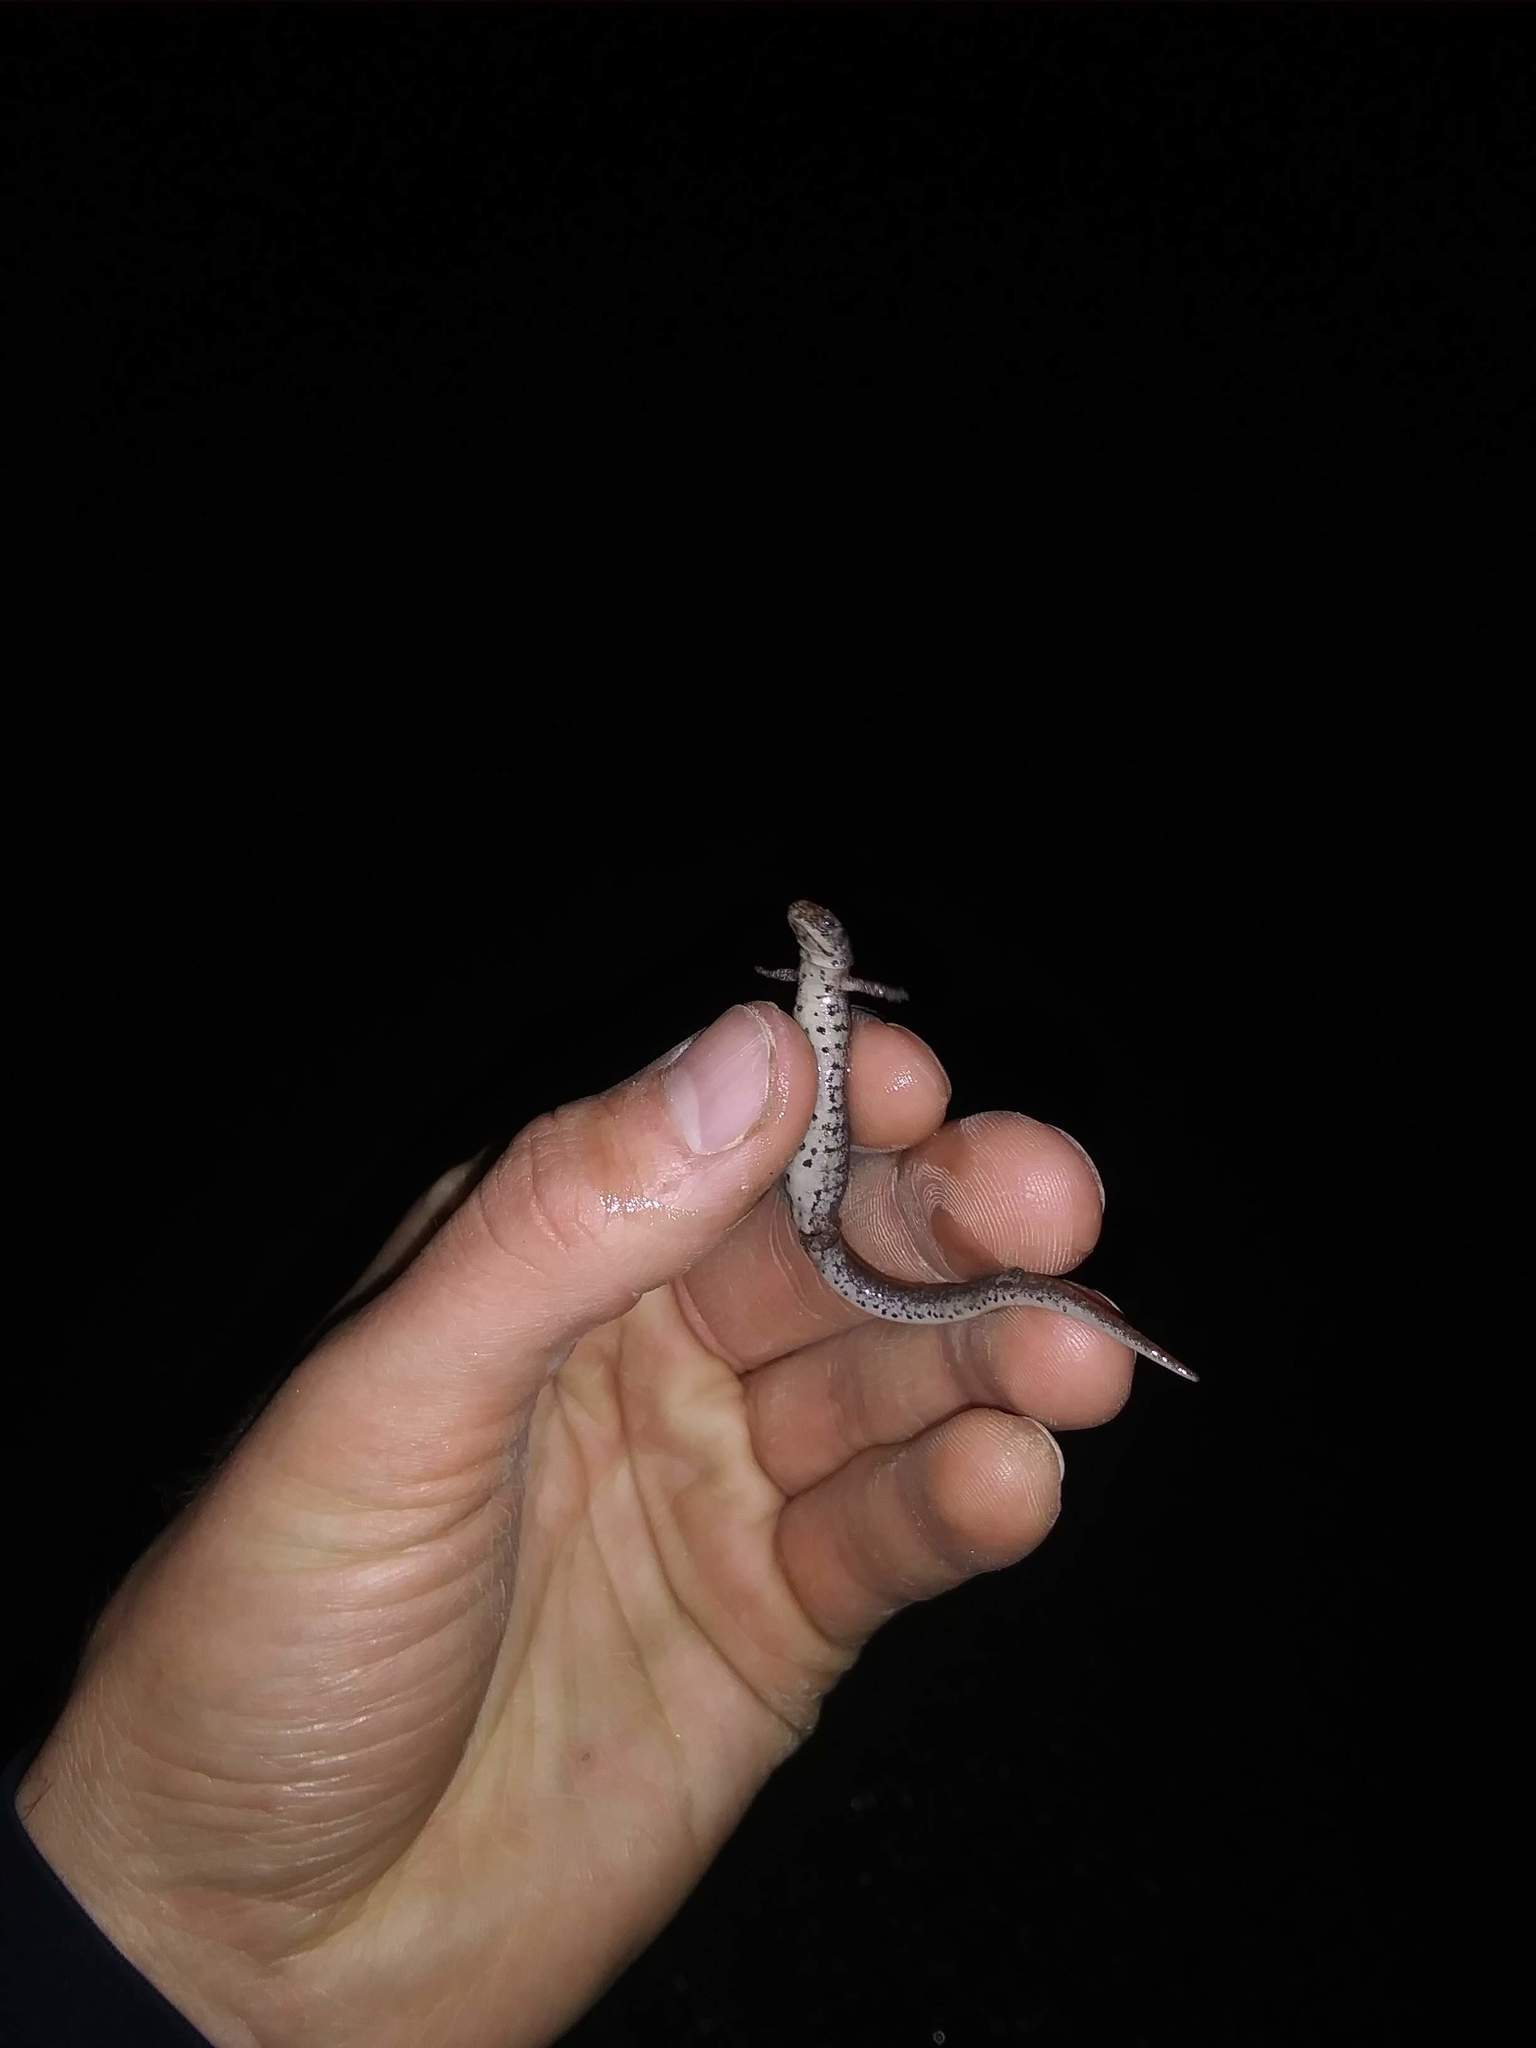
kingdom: Animalia
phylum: Chordata
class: Amphibia
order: Caudata
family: Plethodontidae
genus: Hemidactylium
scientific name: Hemidactylium scutatum
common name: Four-toed salamander
